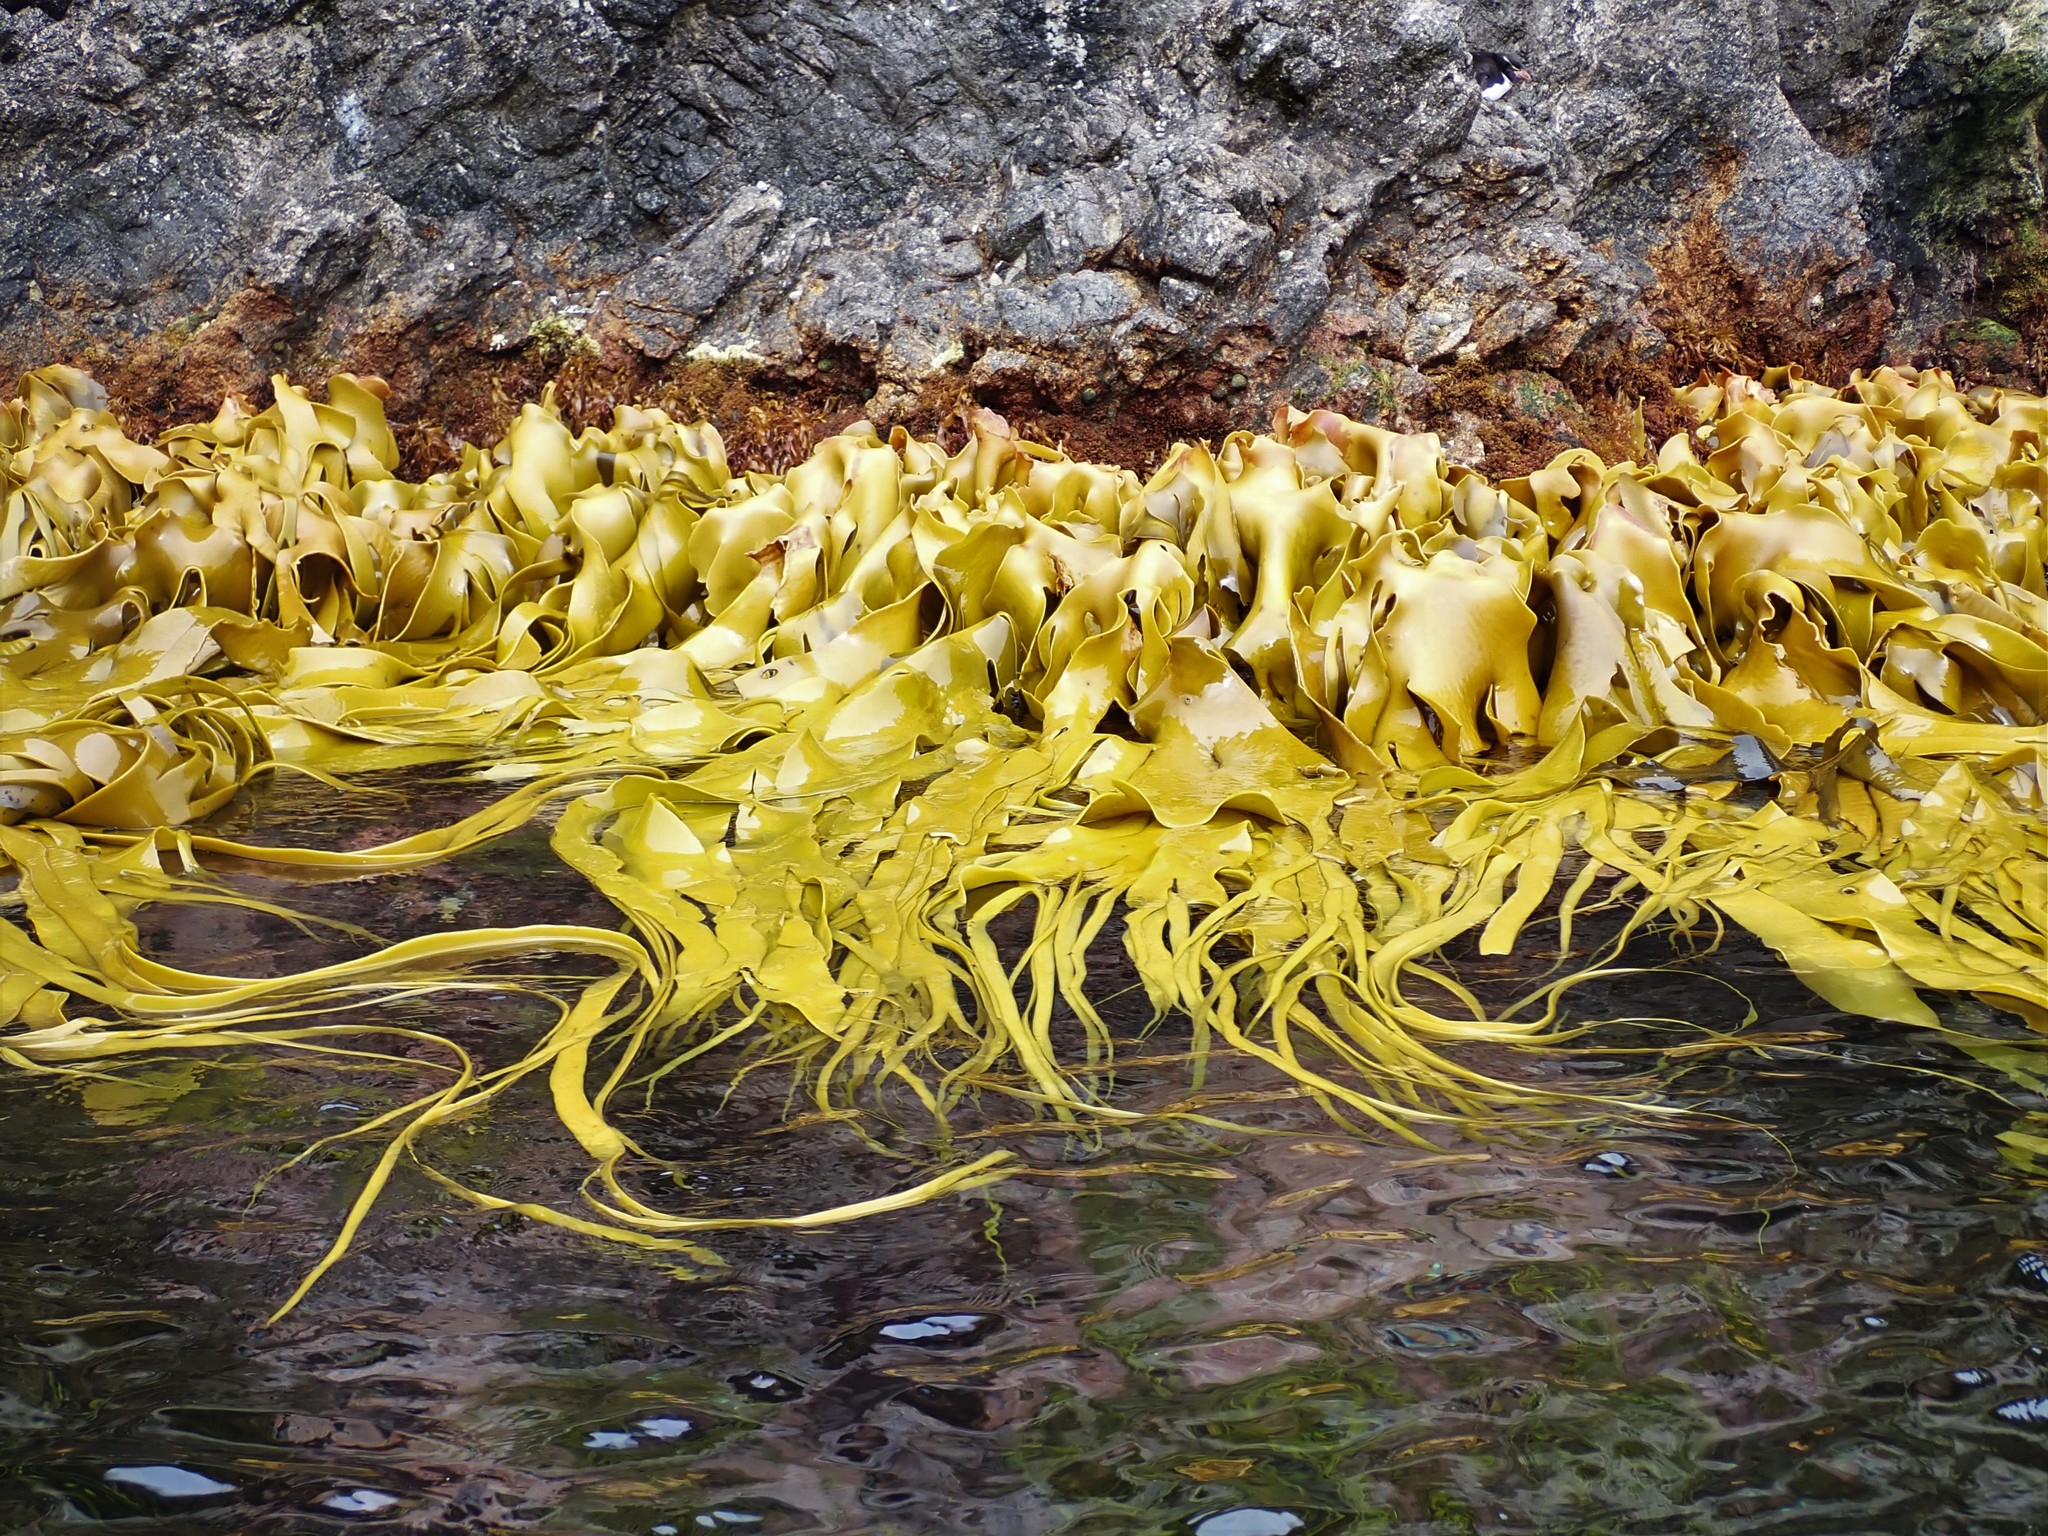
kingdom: Chromista
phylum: Ochrophyta
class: Phaeophyceae
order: Fucales
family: Durvillaeaceae
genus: Durvillaea
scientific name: Durvillaea antarctica
